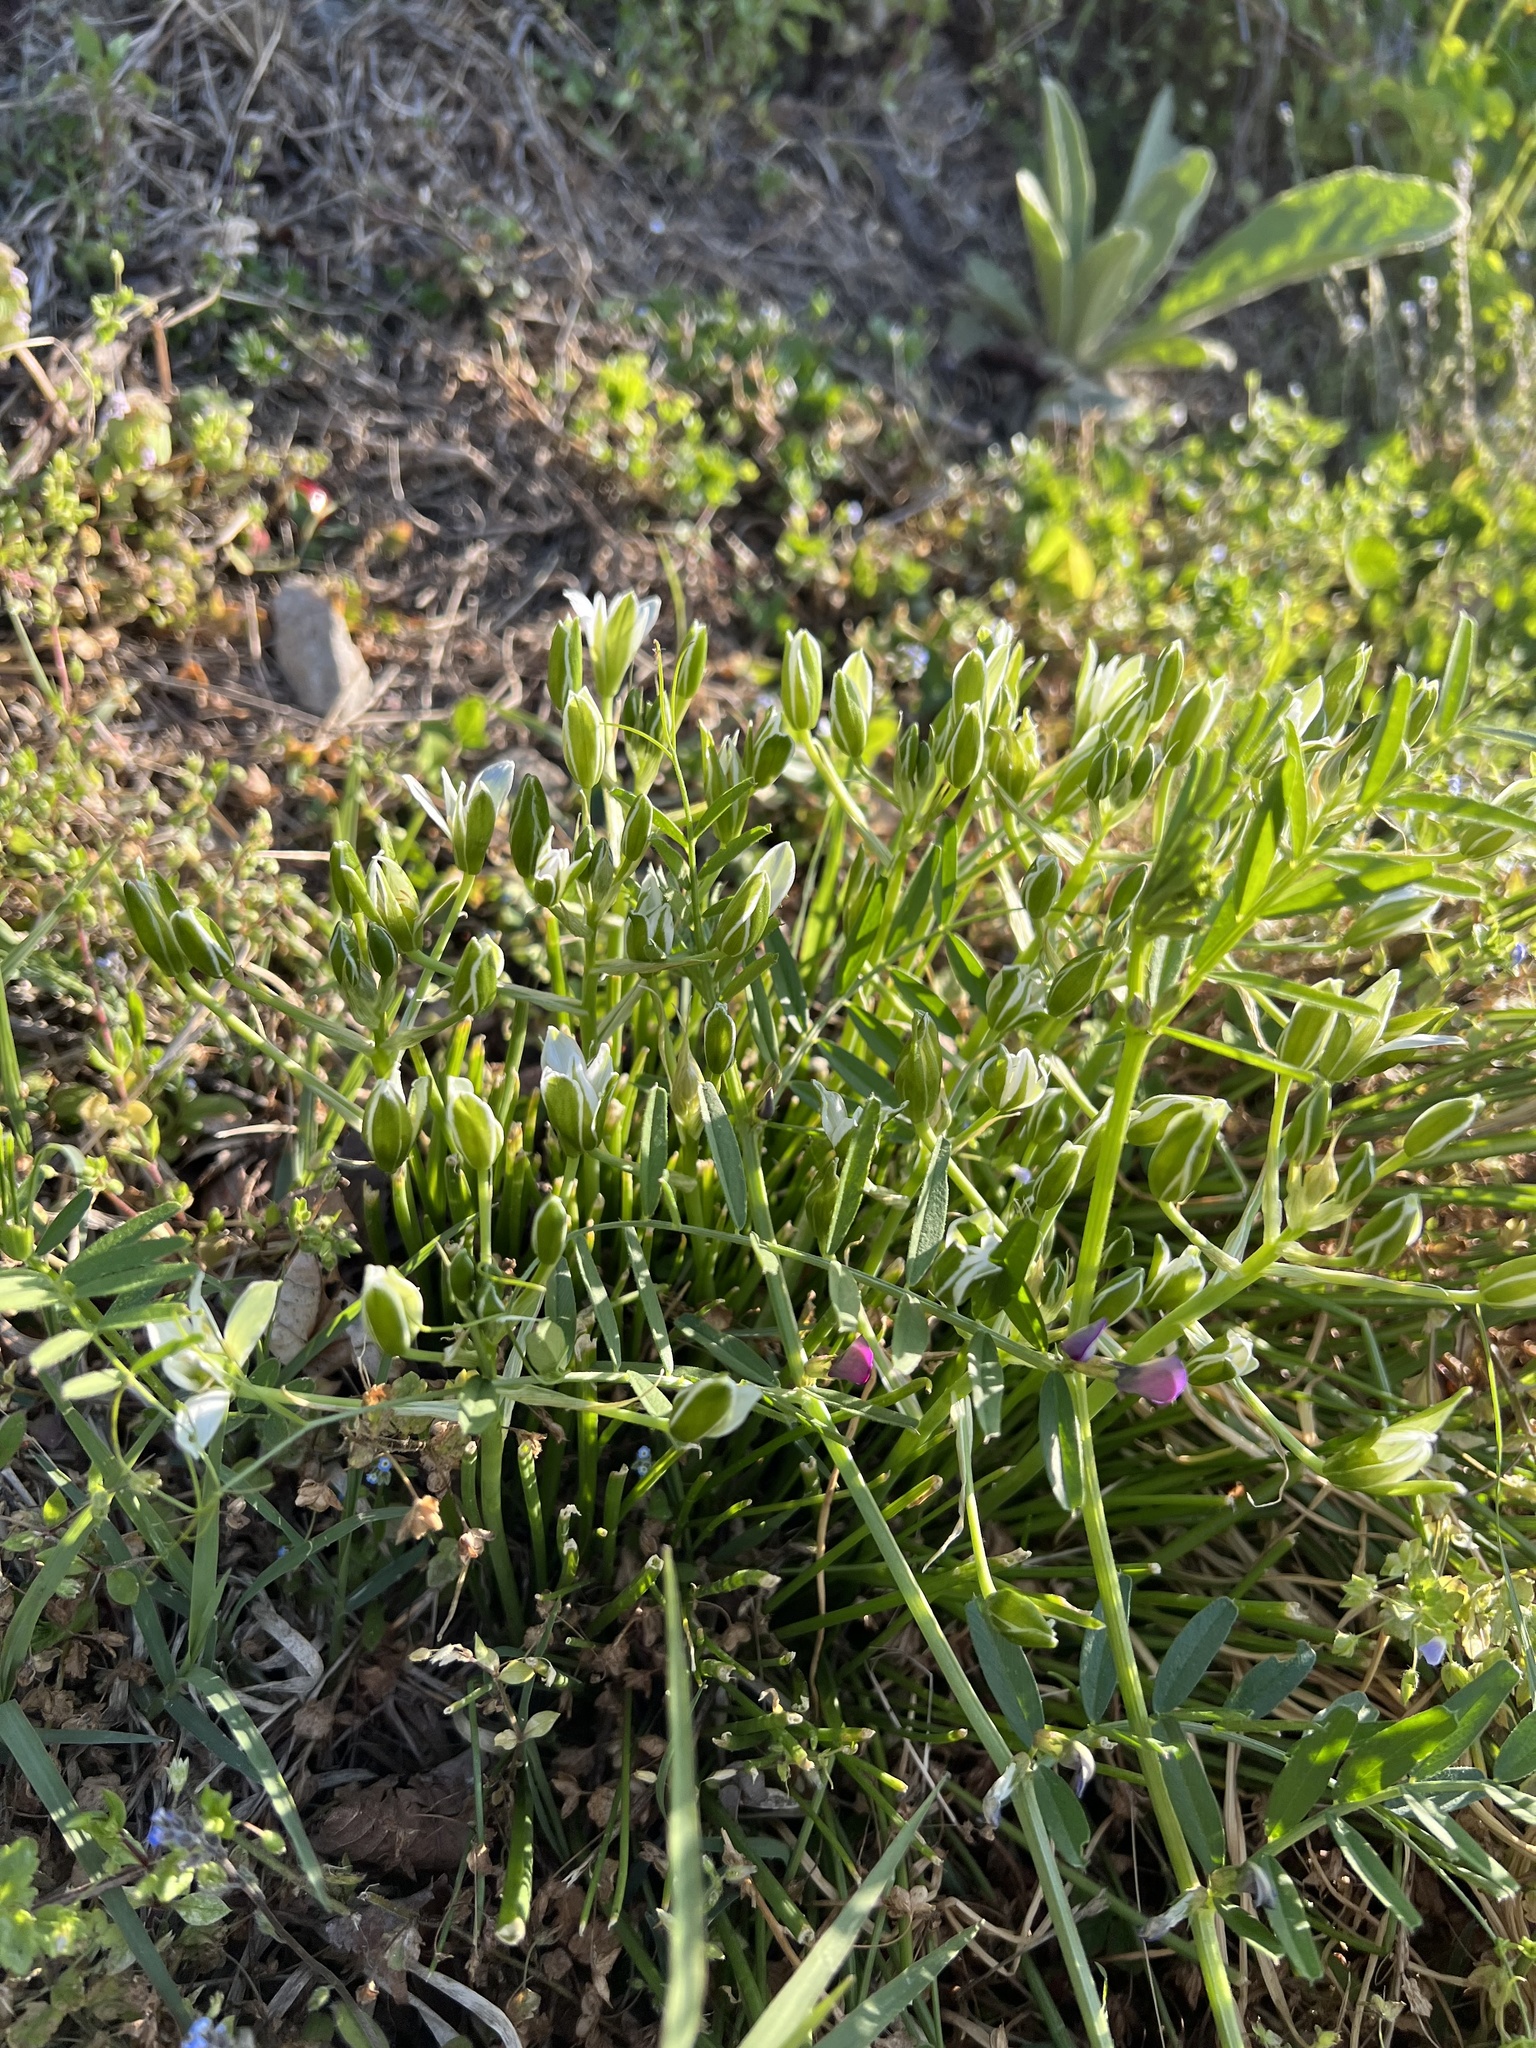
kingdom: Plantae
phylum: Tracheophyta
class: Liliopsida
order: Asparagales
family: Asparagaceae
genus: Ornithogalum
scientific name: Ornithogalum umbellatum
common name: Garden star-of-bethlehem
